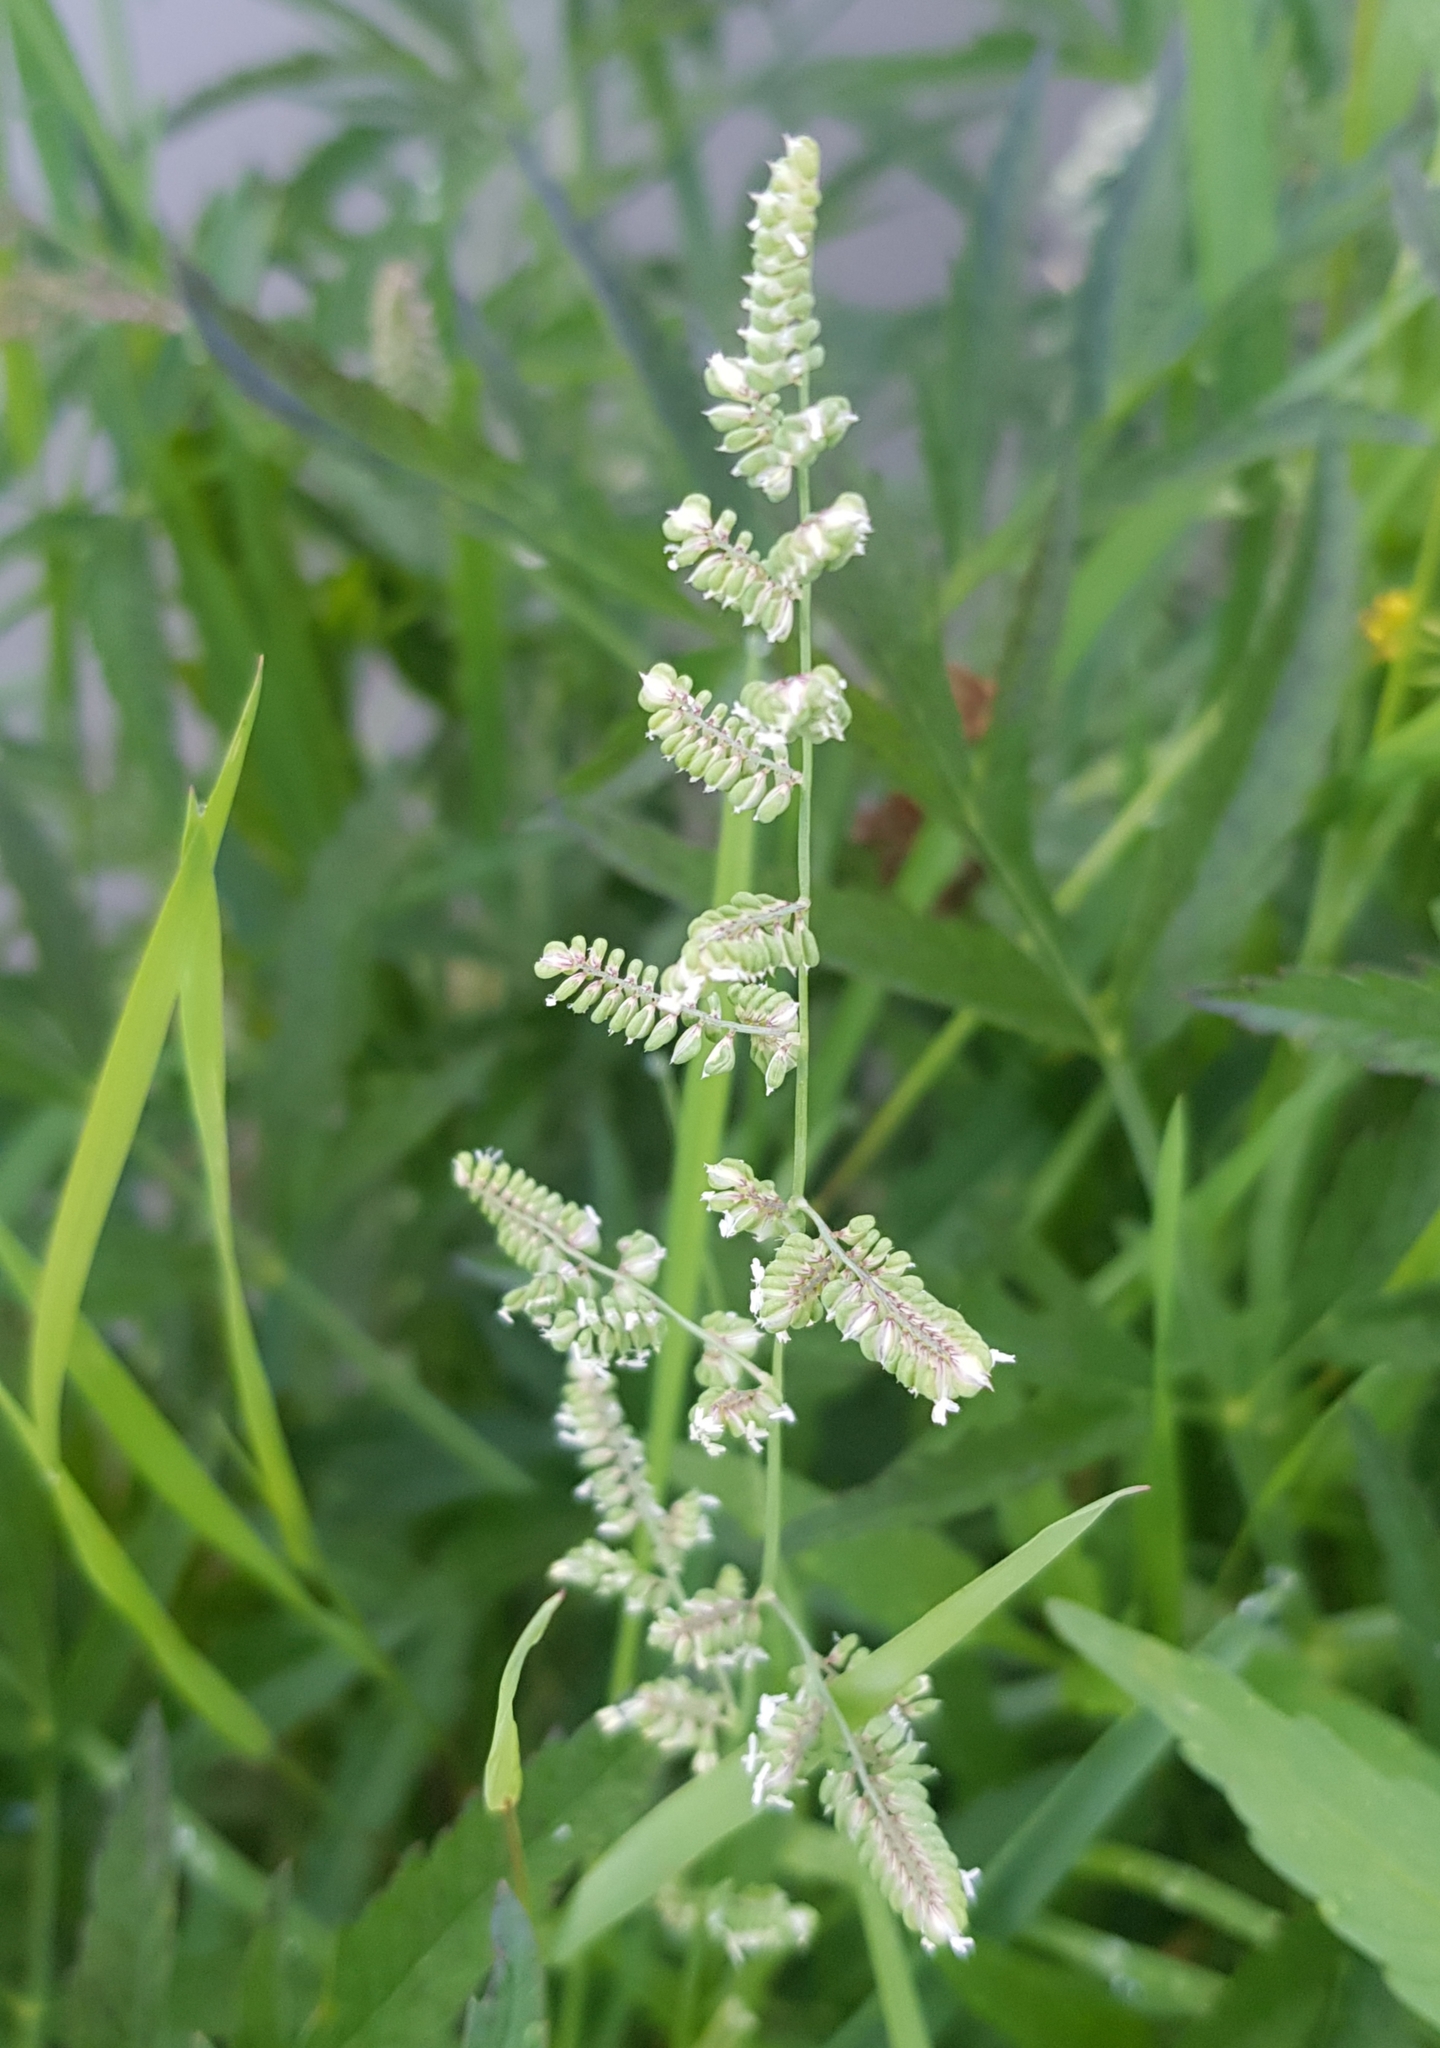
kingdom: Plantae
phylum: Tracheophyta
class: Liliopsida
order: Poales
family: Poaceae
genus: Beckmannia
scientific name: Beckmannia syzigachne
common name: American slough-grass
